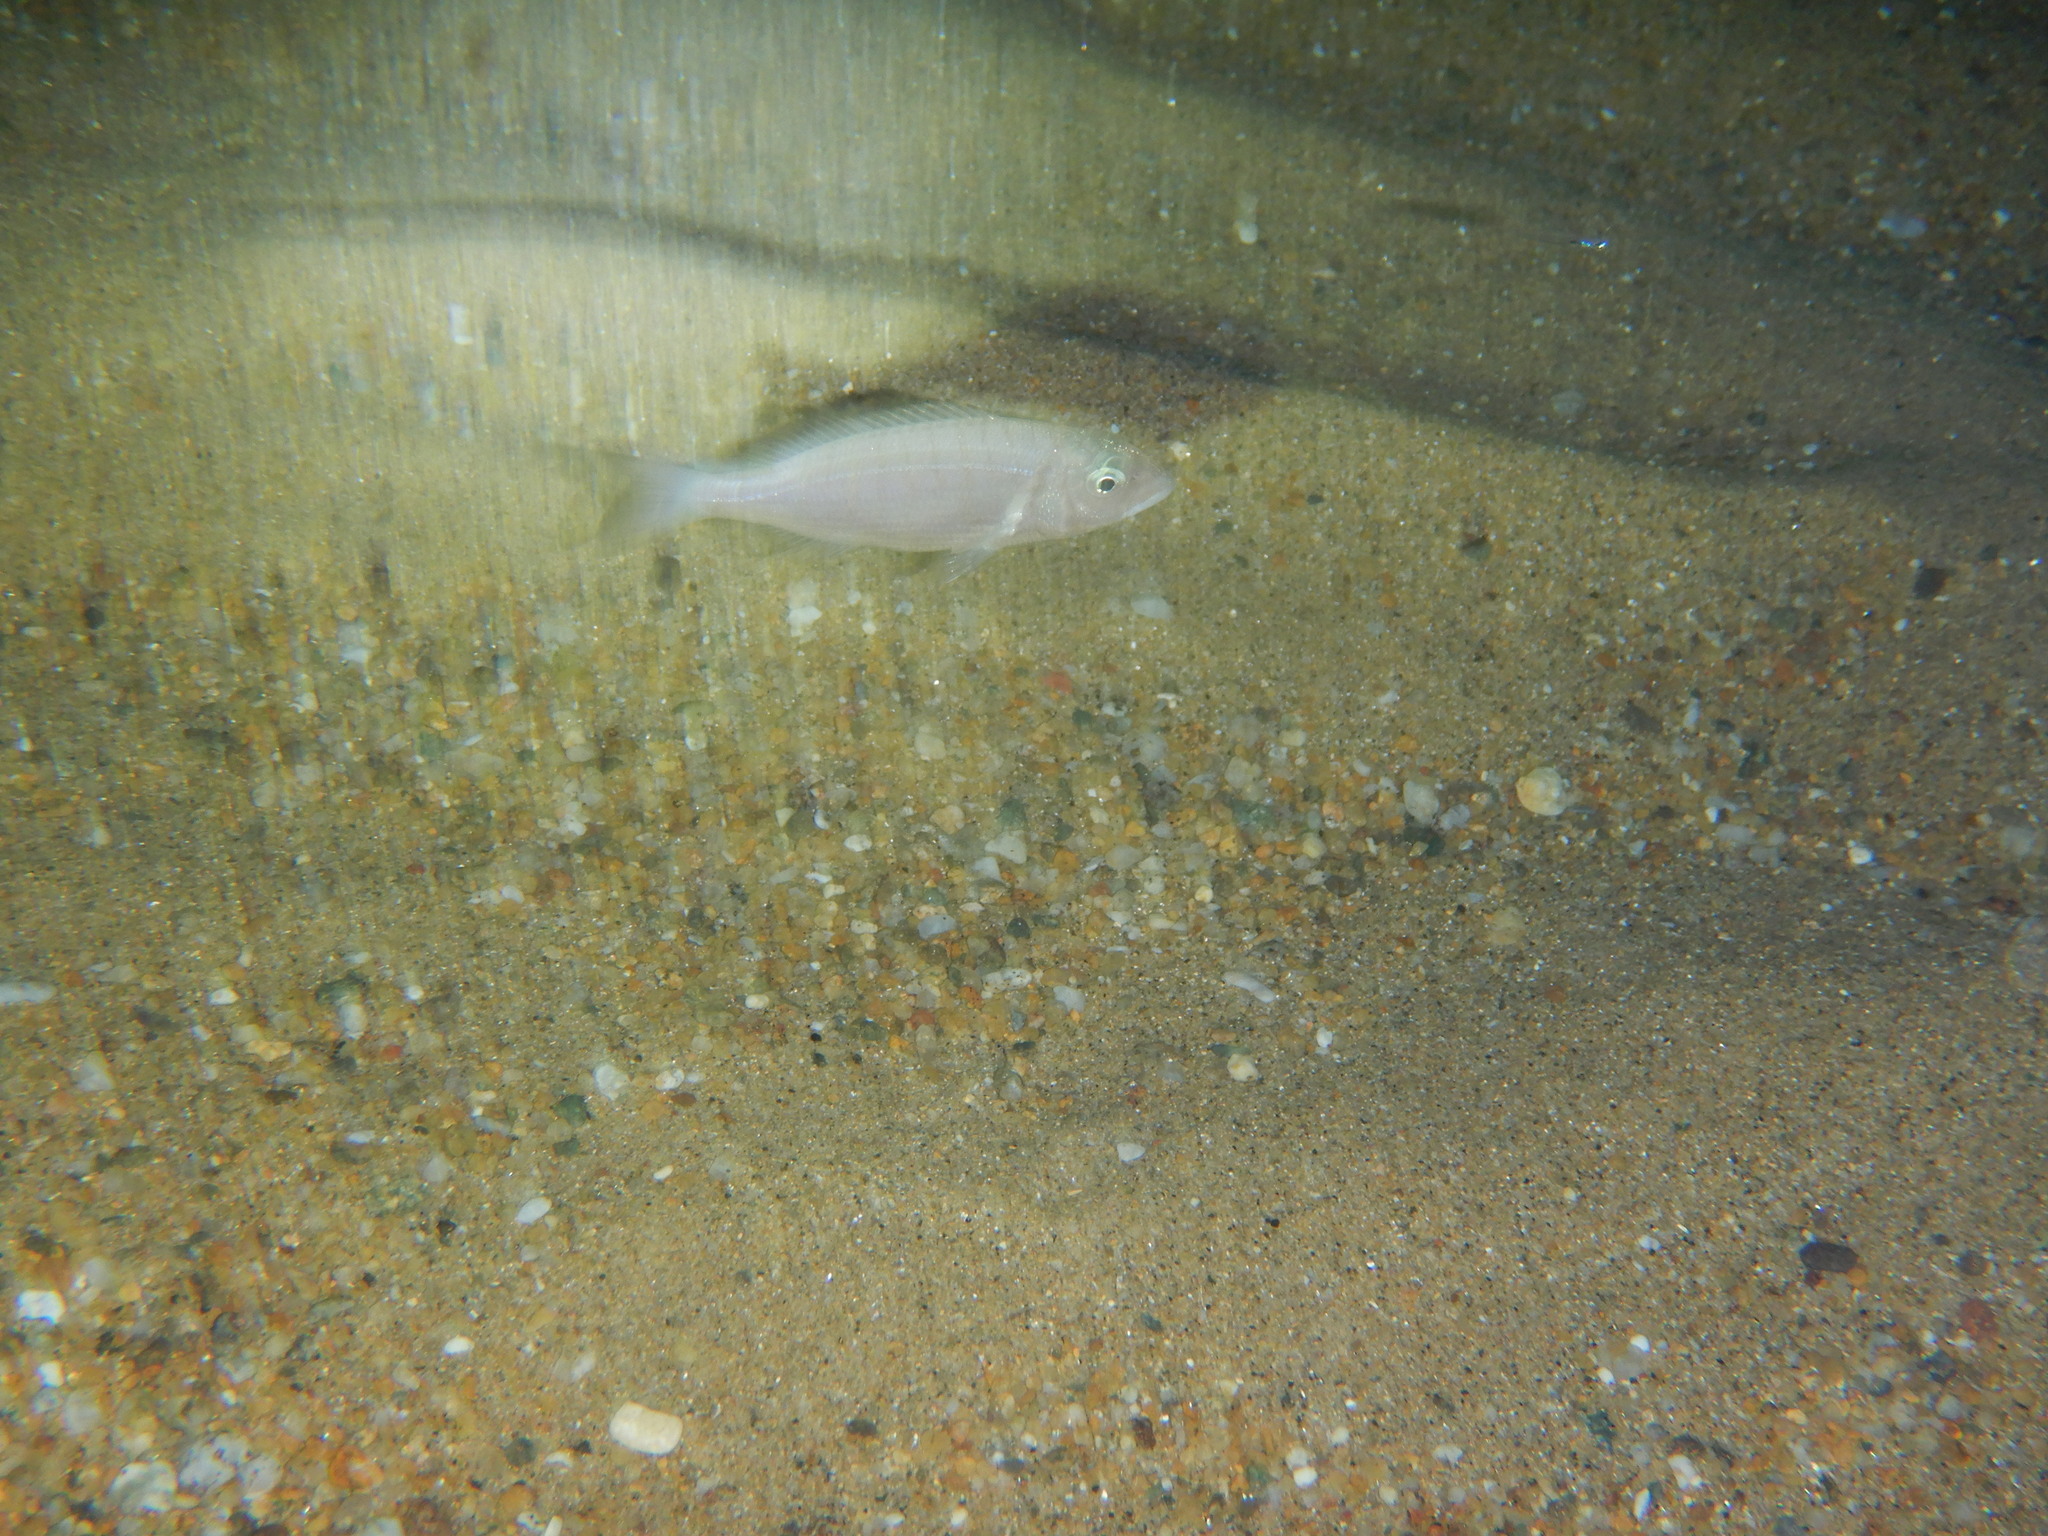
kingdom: Animalia
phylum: Chordata
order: Perciformes
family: Sparidae
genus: Lithognathus
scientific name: Lithognathus mormyrus
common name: Sand steenbras
